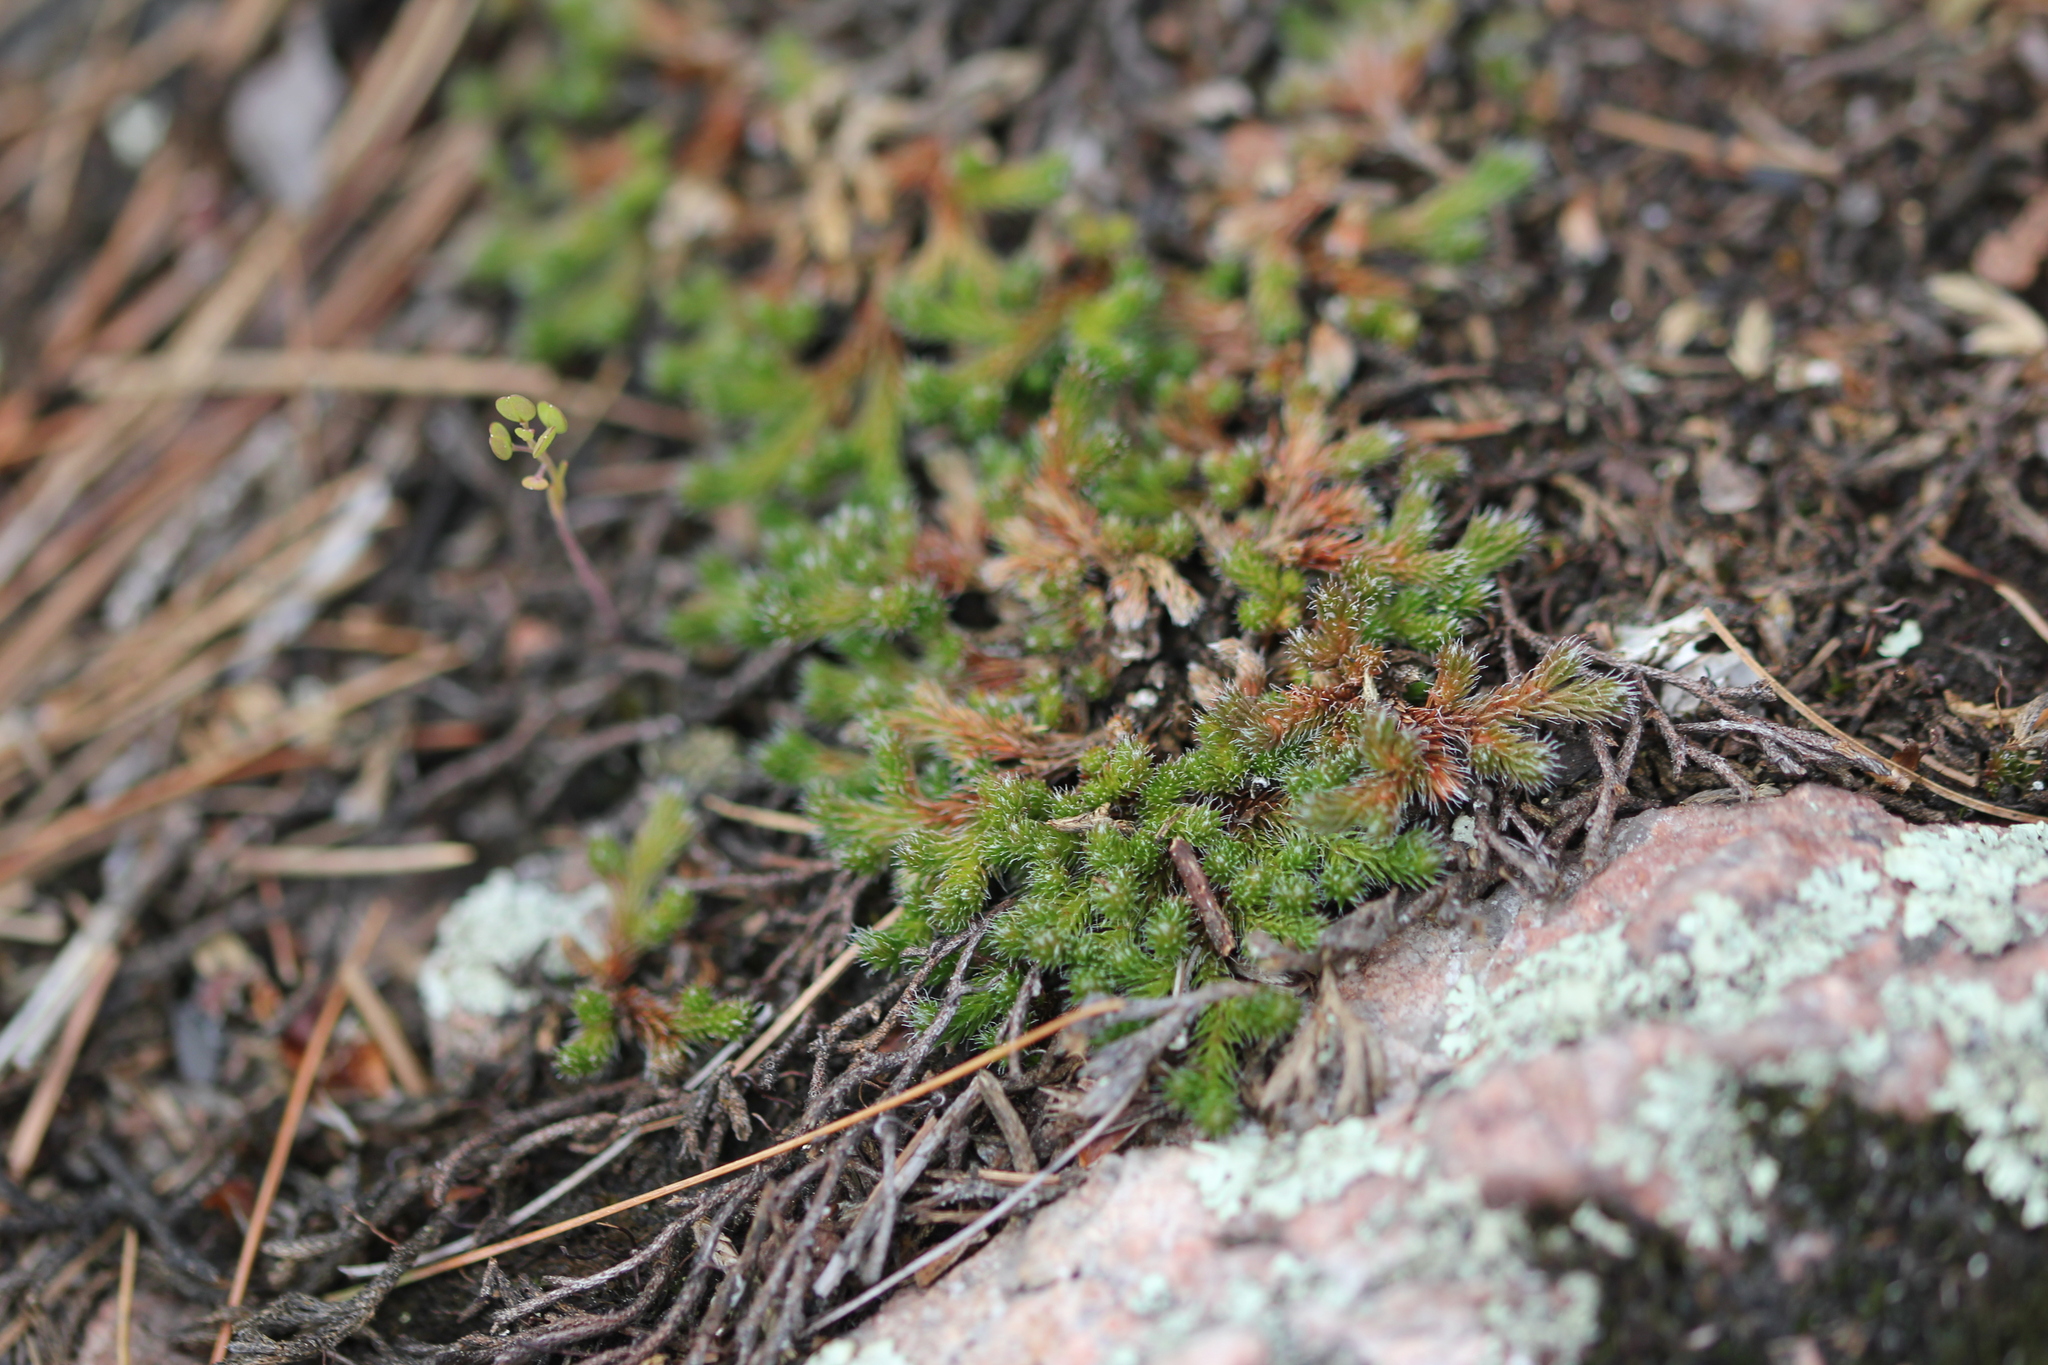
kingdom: Plantae
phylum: Tracheophyta
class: Lycopodiopsida
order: Selaginellales
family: Selaginellaceae
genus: Selaginella
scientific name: Selaginella rupestris
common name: Dwarf spikemoss
